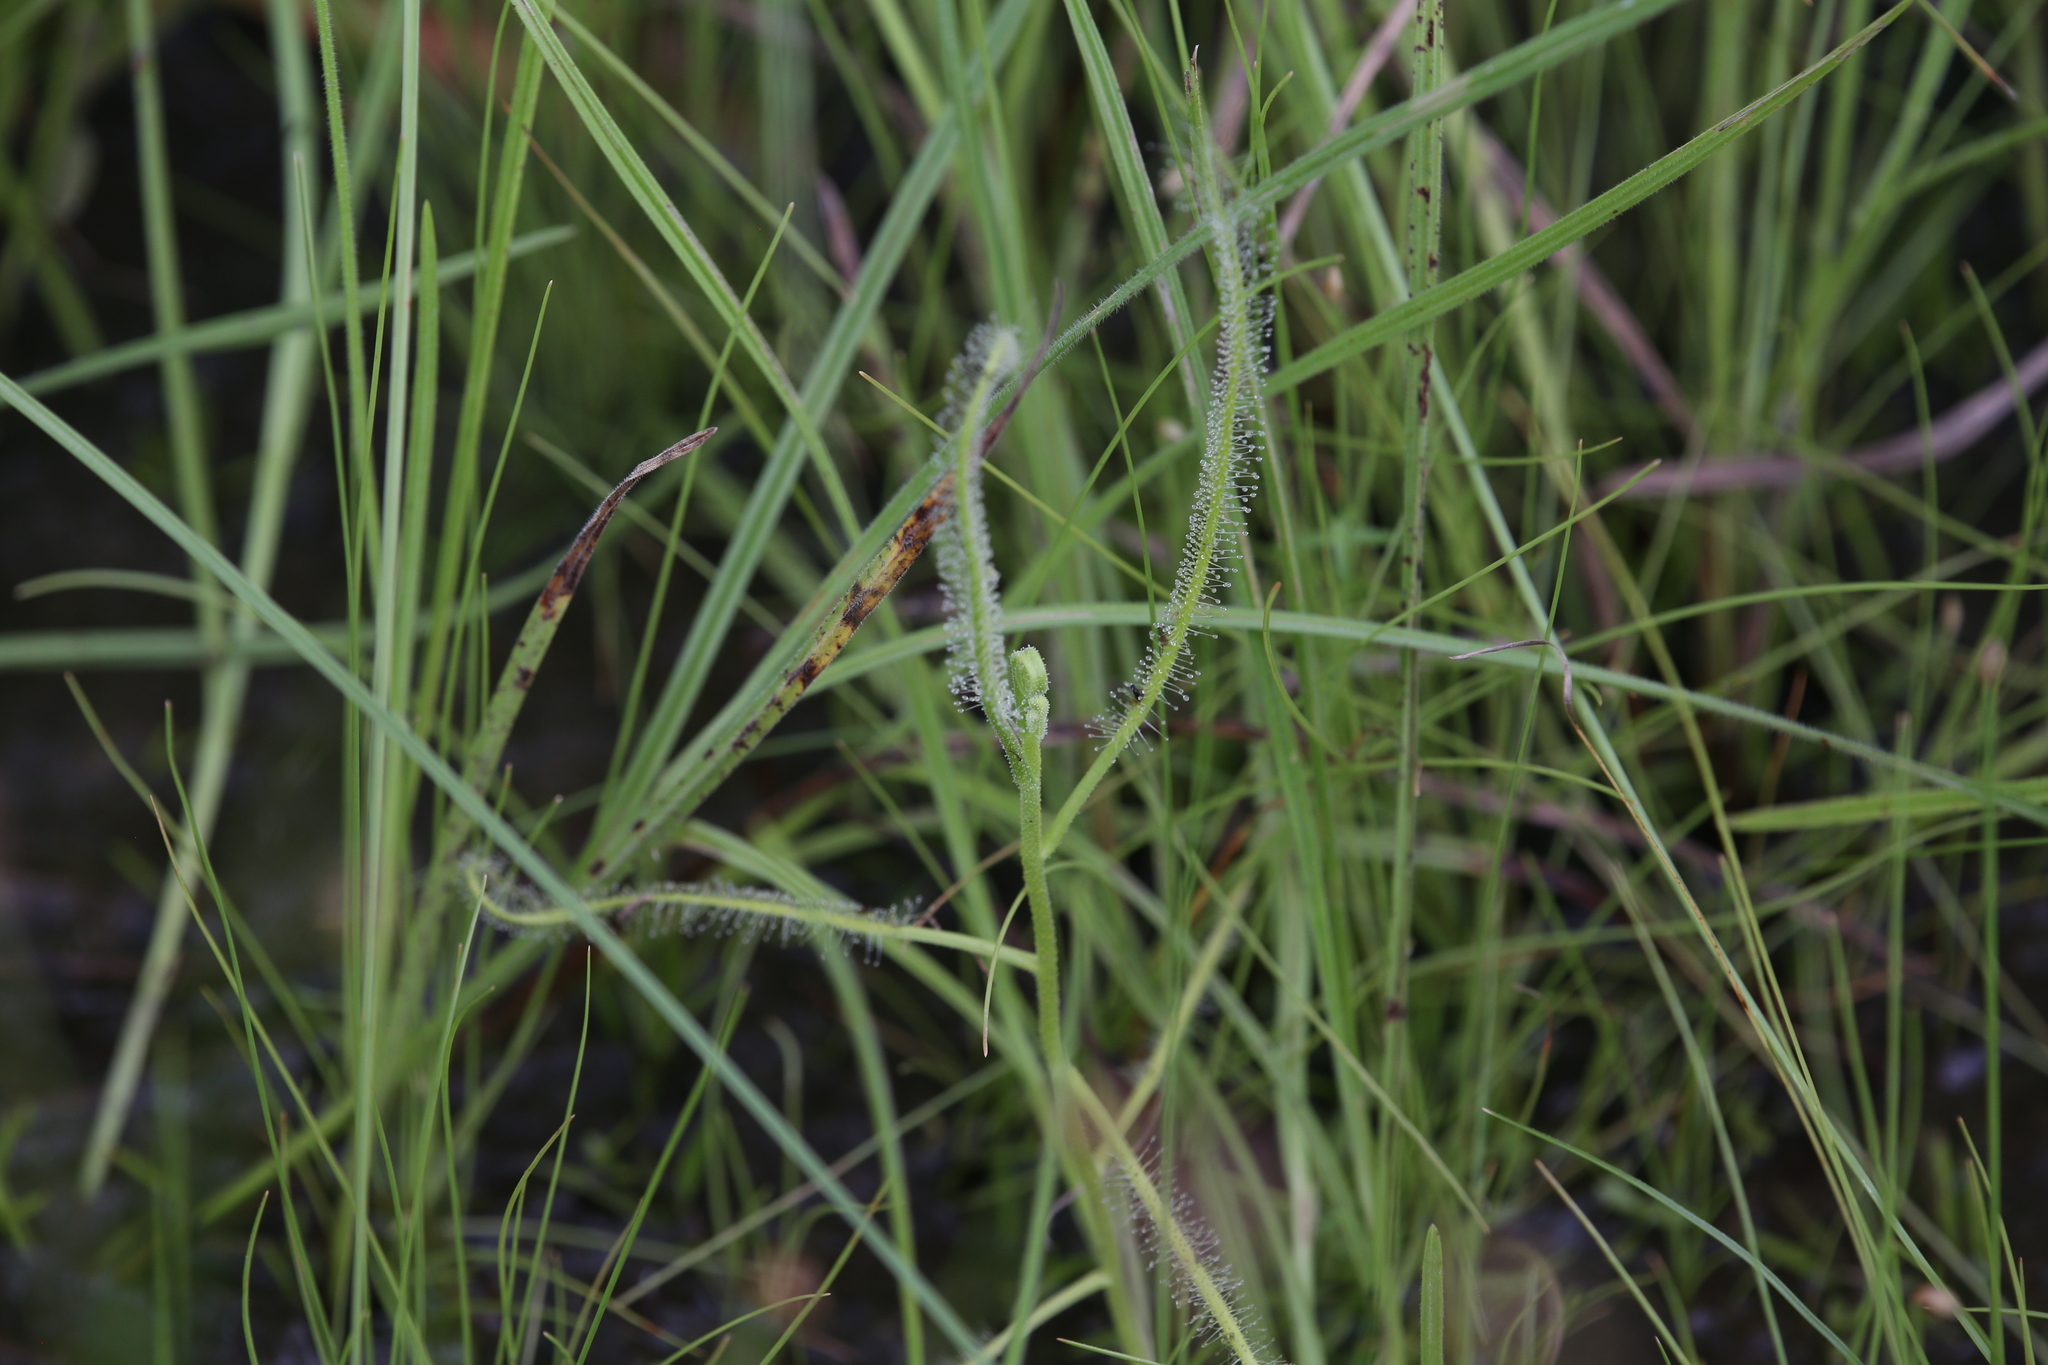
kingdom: Plantae
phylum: Tracheophyta
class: Magnoliopsida
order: Caryophyllales
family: Droseraceae
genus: Drosera
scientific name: Drosera indica
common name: Indian sundew
